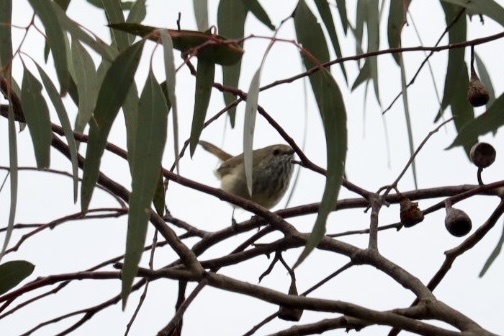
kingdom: Animalia
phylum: Chordata
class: Aves
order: Passeriformes
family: Acanthizidae
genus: Acanthiza
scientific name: Acanthiza pusilla
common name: Brown thornbill
